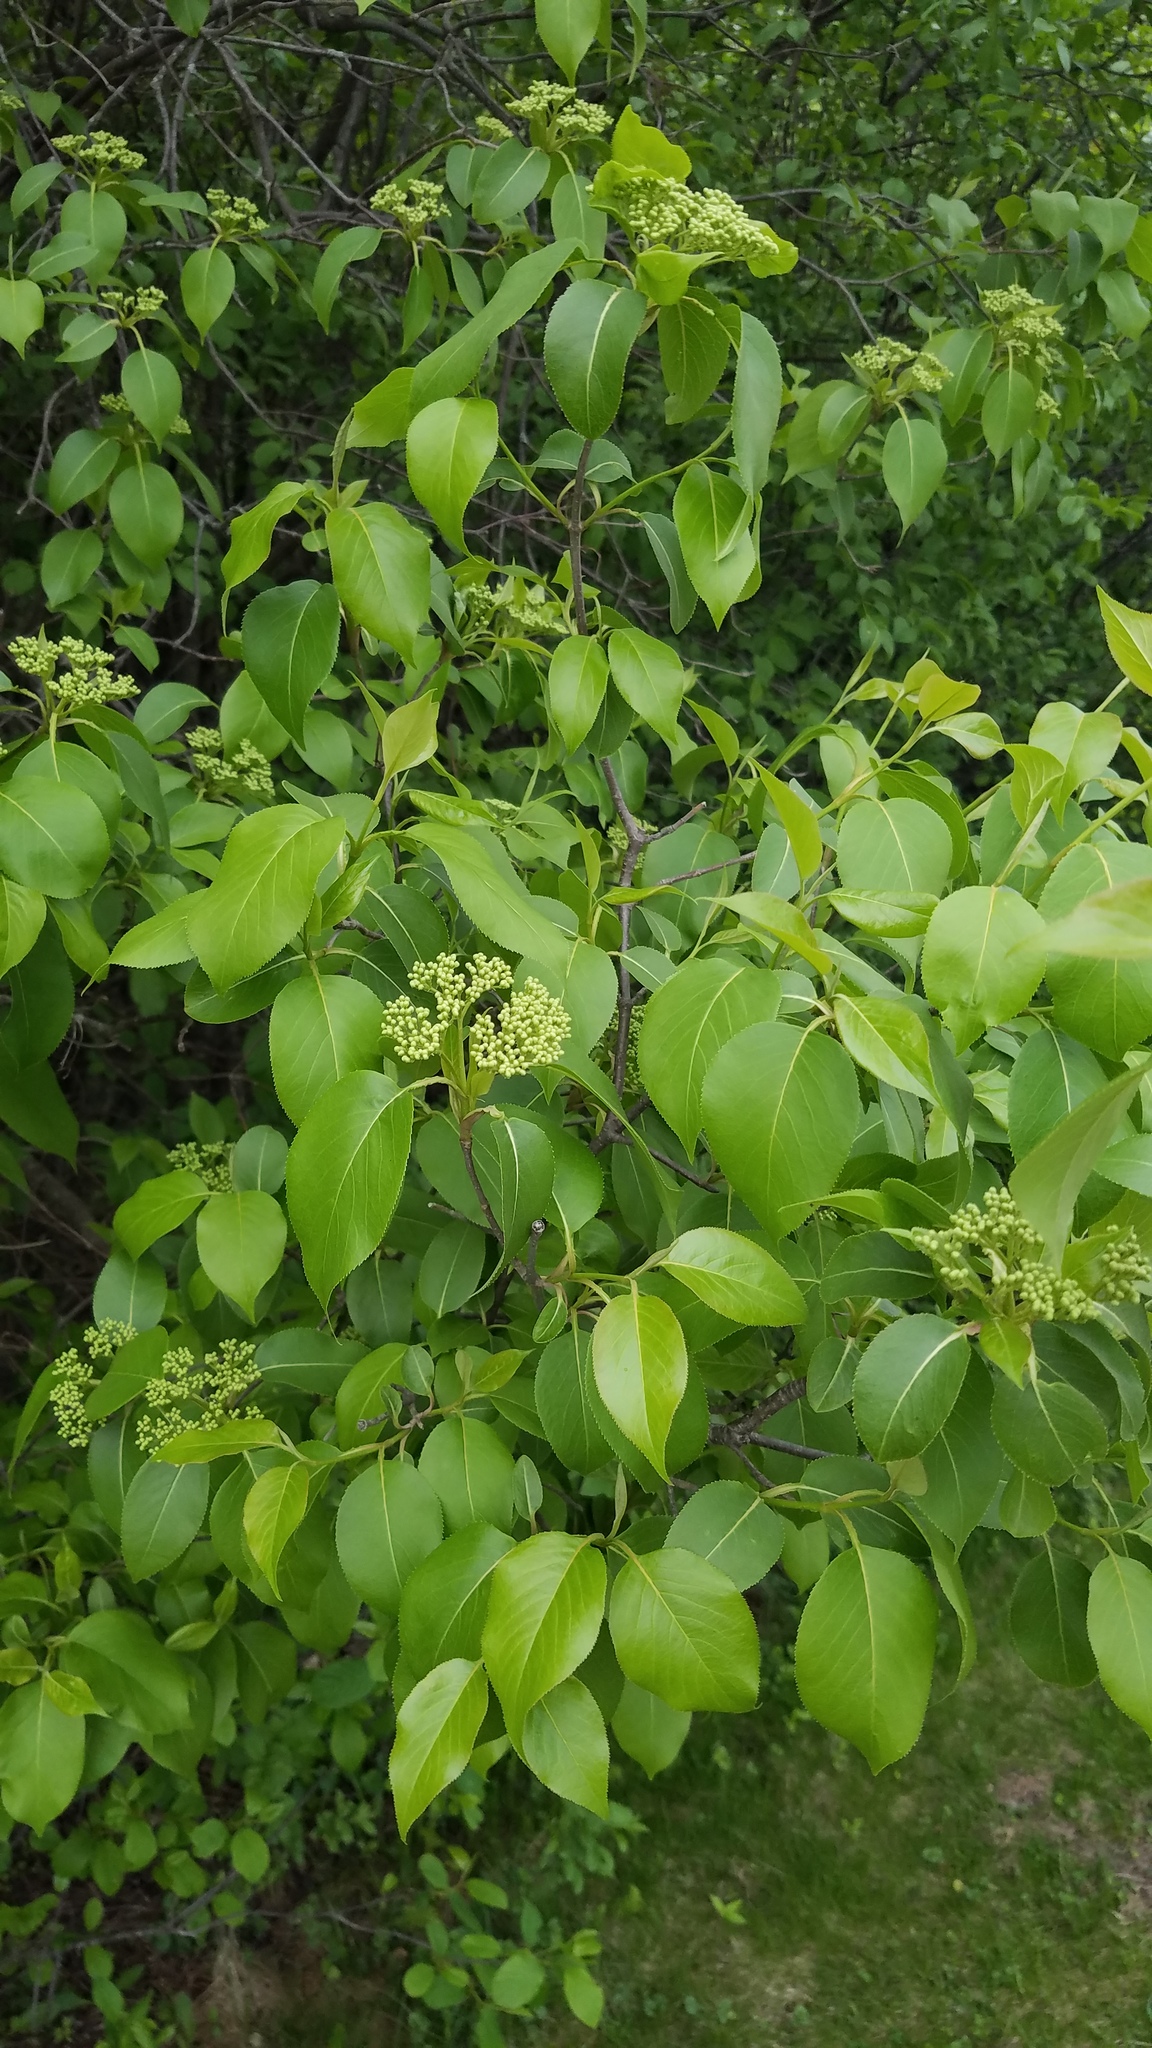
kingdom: Plantae
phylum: Tracheophyta
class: Magnoliopsida
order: Dipsacales
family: Viburnaceae
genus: Viburnum
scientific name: Viburnum lentago
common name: Black haw
